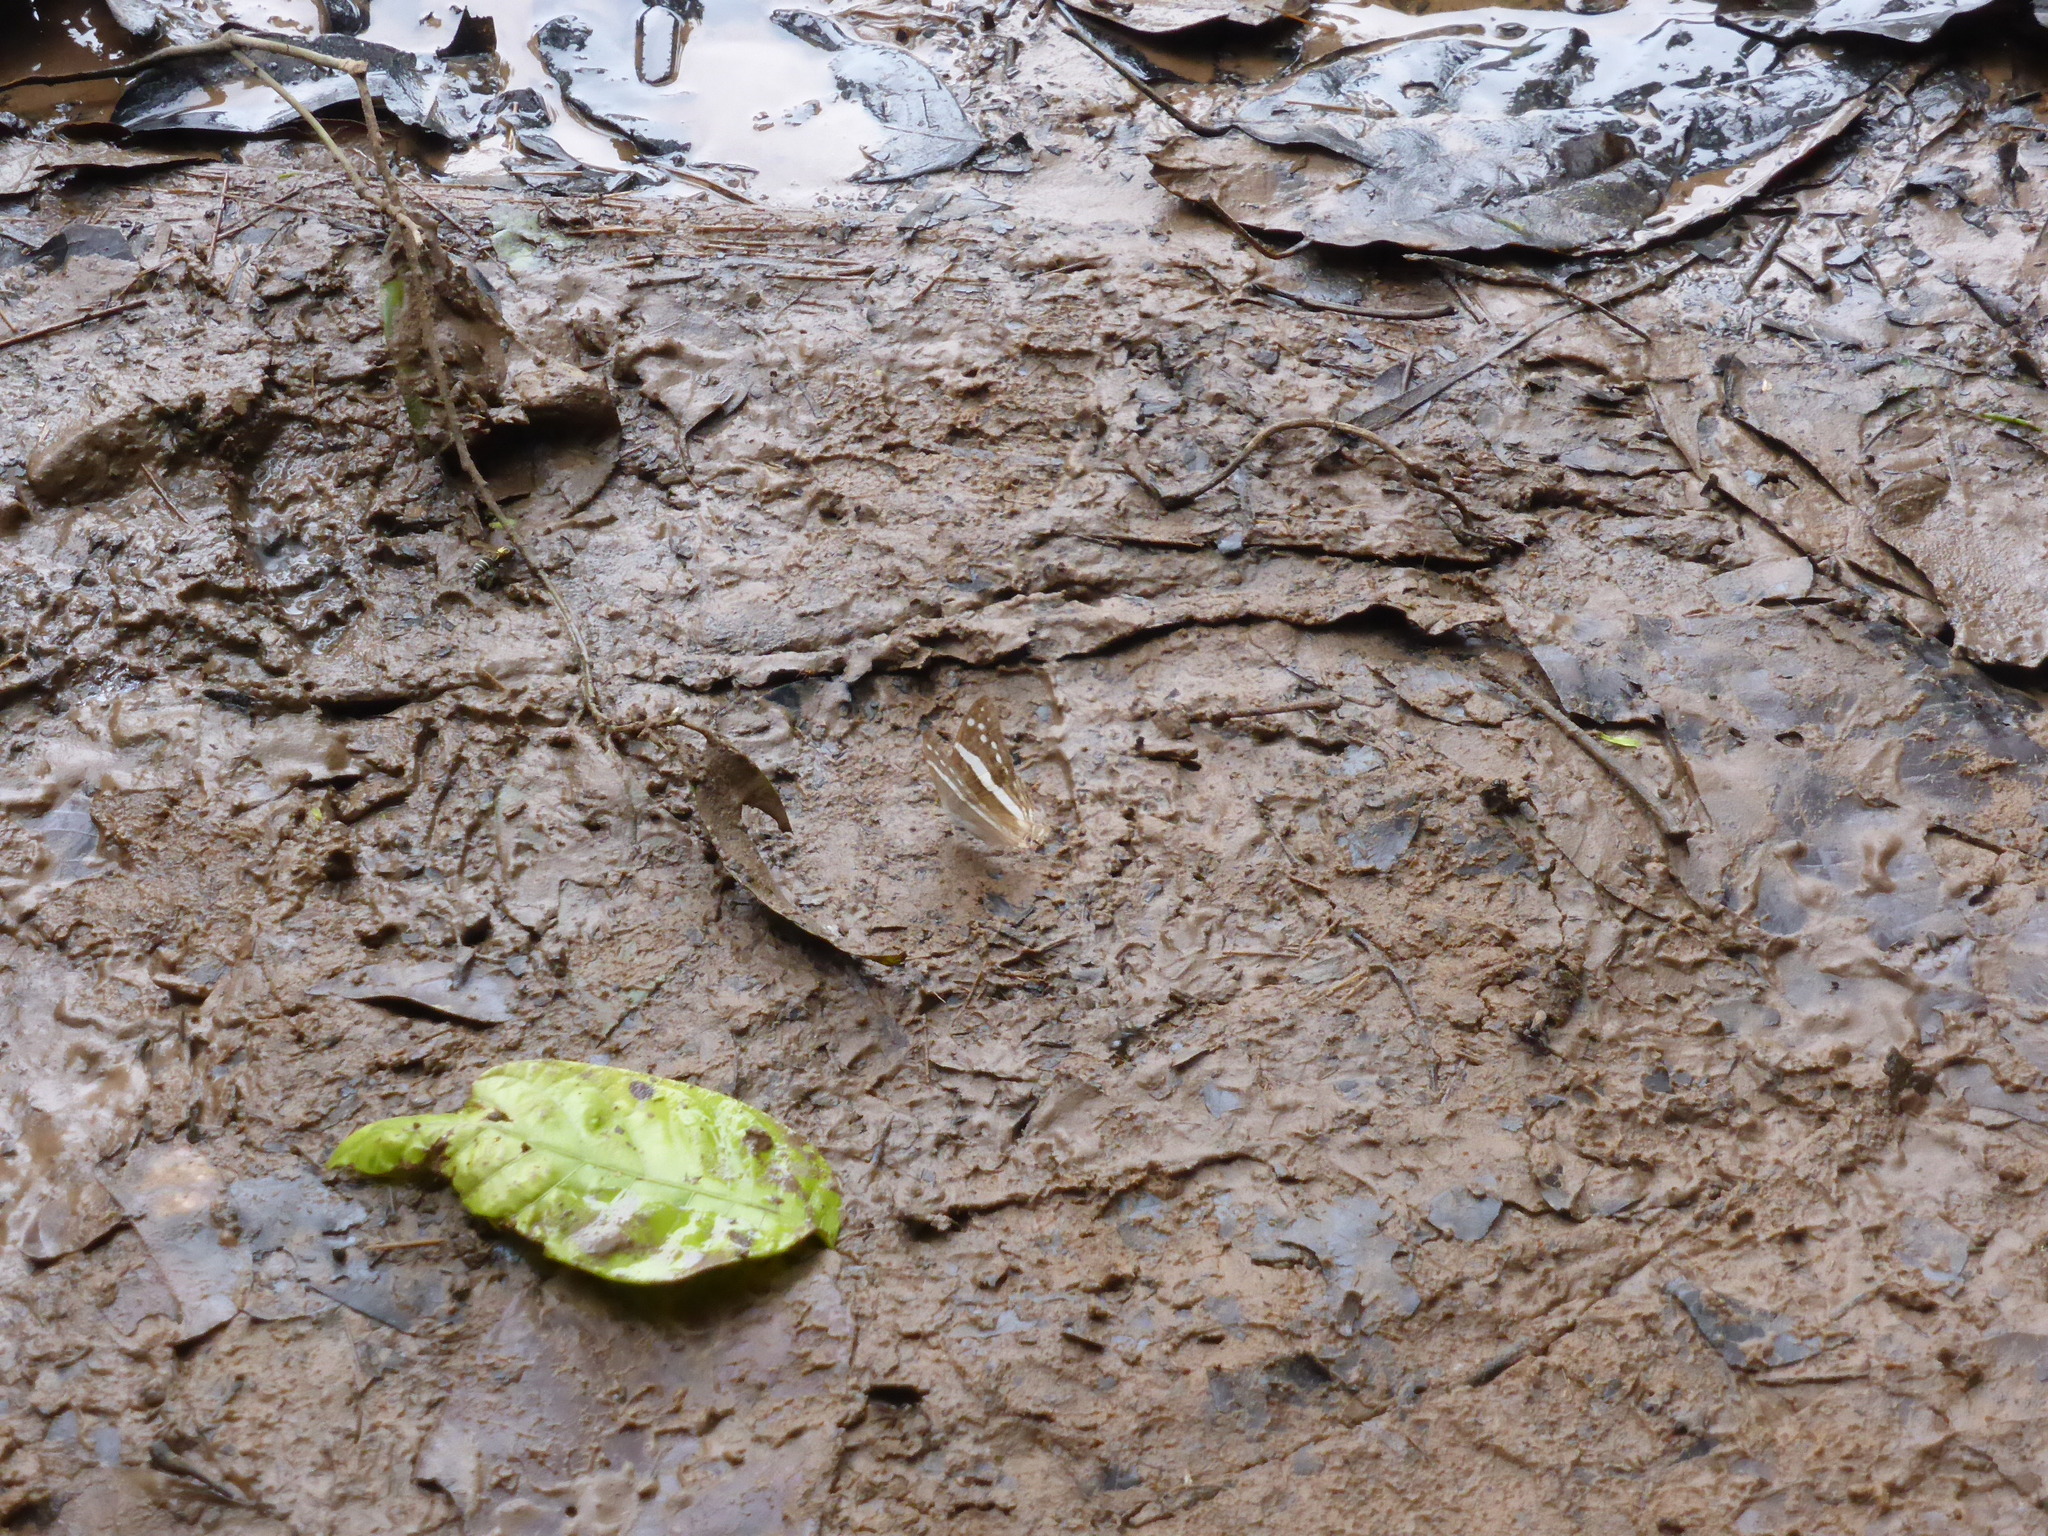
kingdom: Animalia
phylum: Arthropoda
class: Insecta
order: Lepidoptera
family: Nymphalidae
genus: Marpesia
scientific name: Marpesia crethon
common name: Crethon daggerwing
